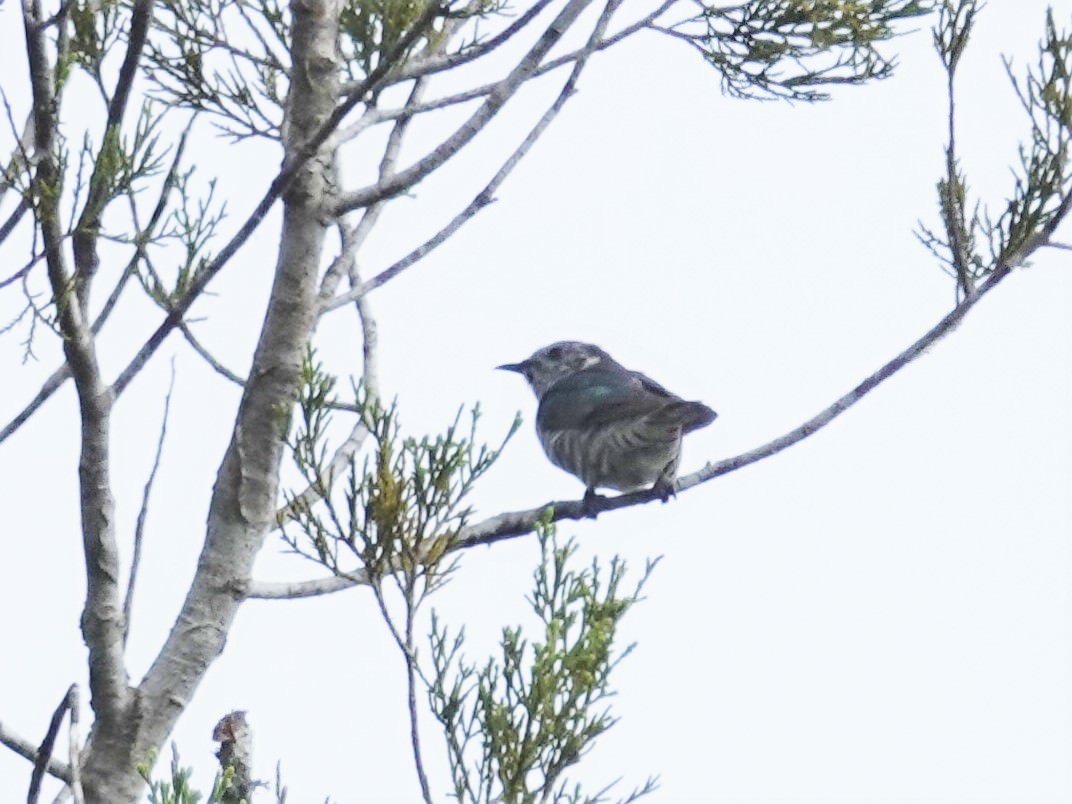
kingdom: Animalia
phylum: Chordata
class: Aves
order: Cuculiformes
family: Cuculidae
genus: Chrysococcyx
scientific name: Chrysococcyx lucidus
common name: Shining bronze cuckoo
